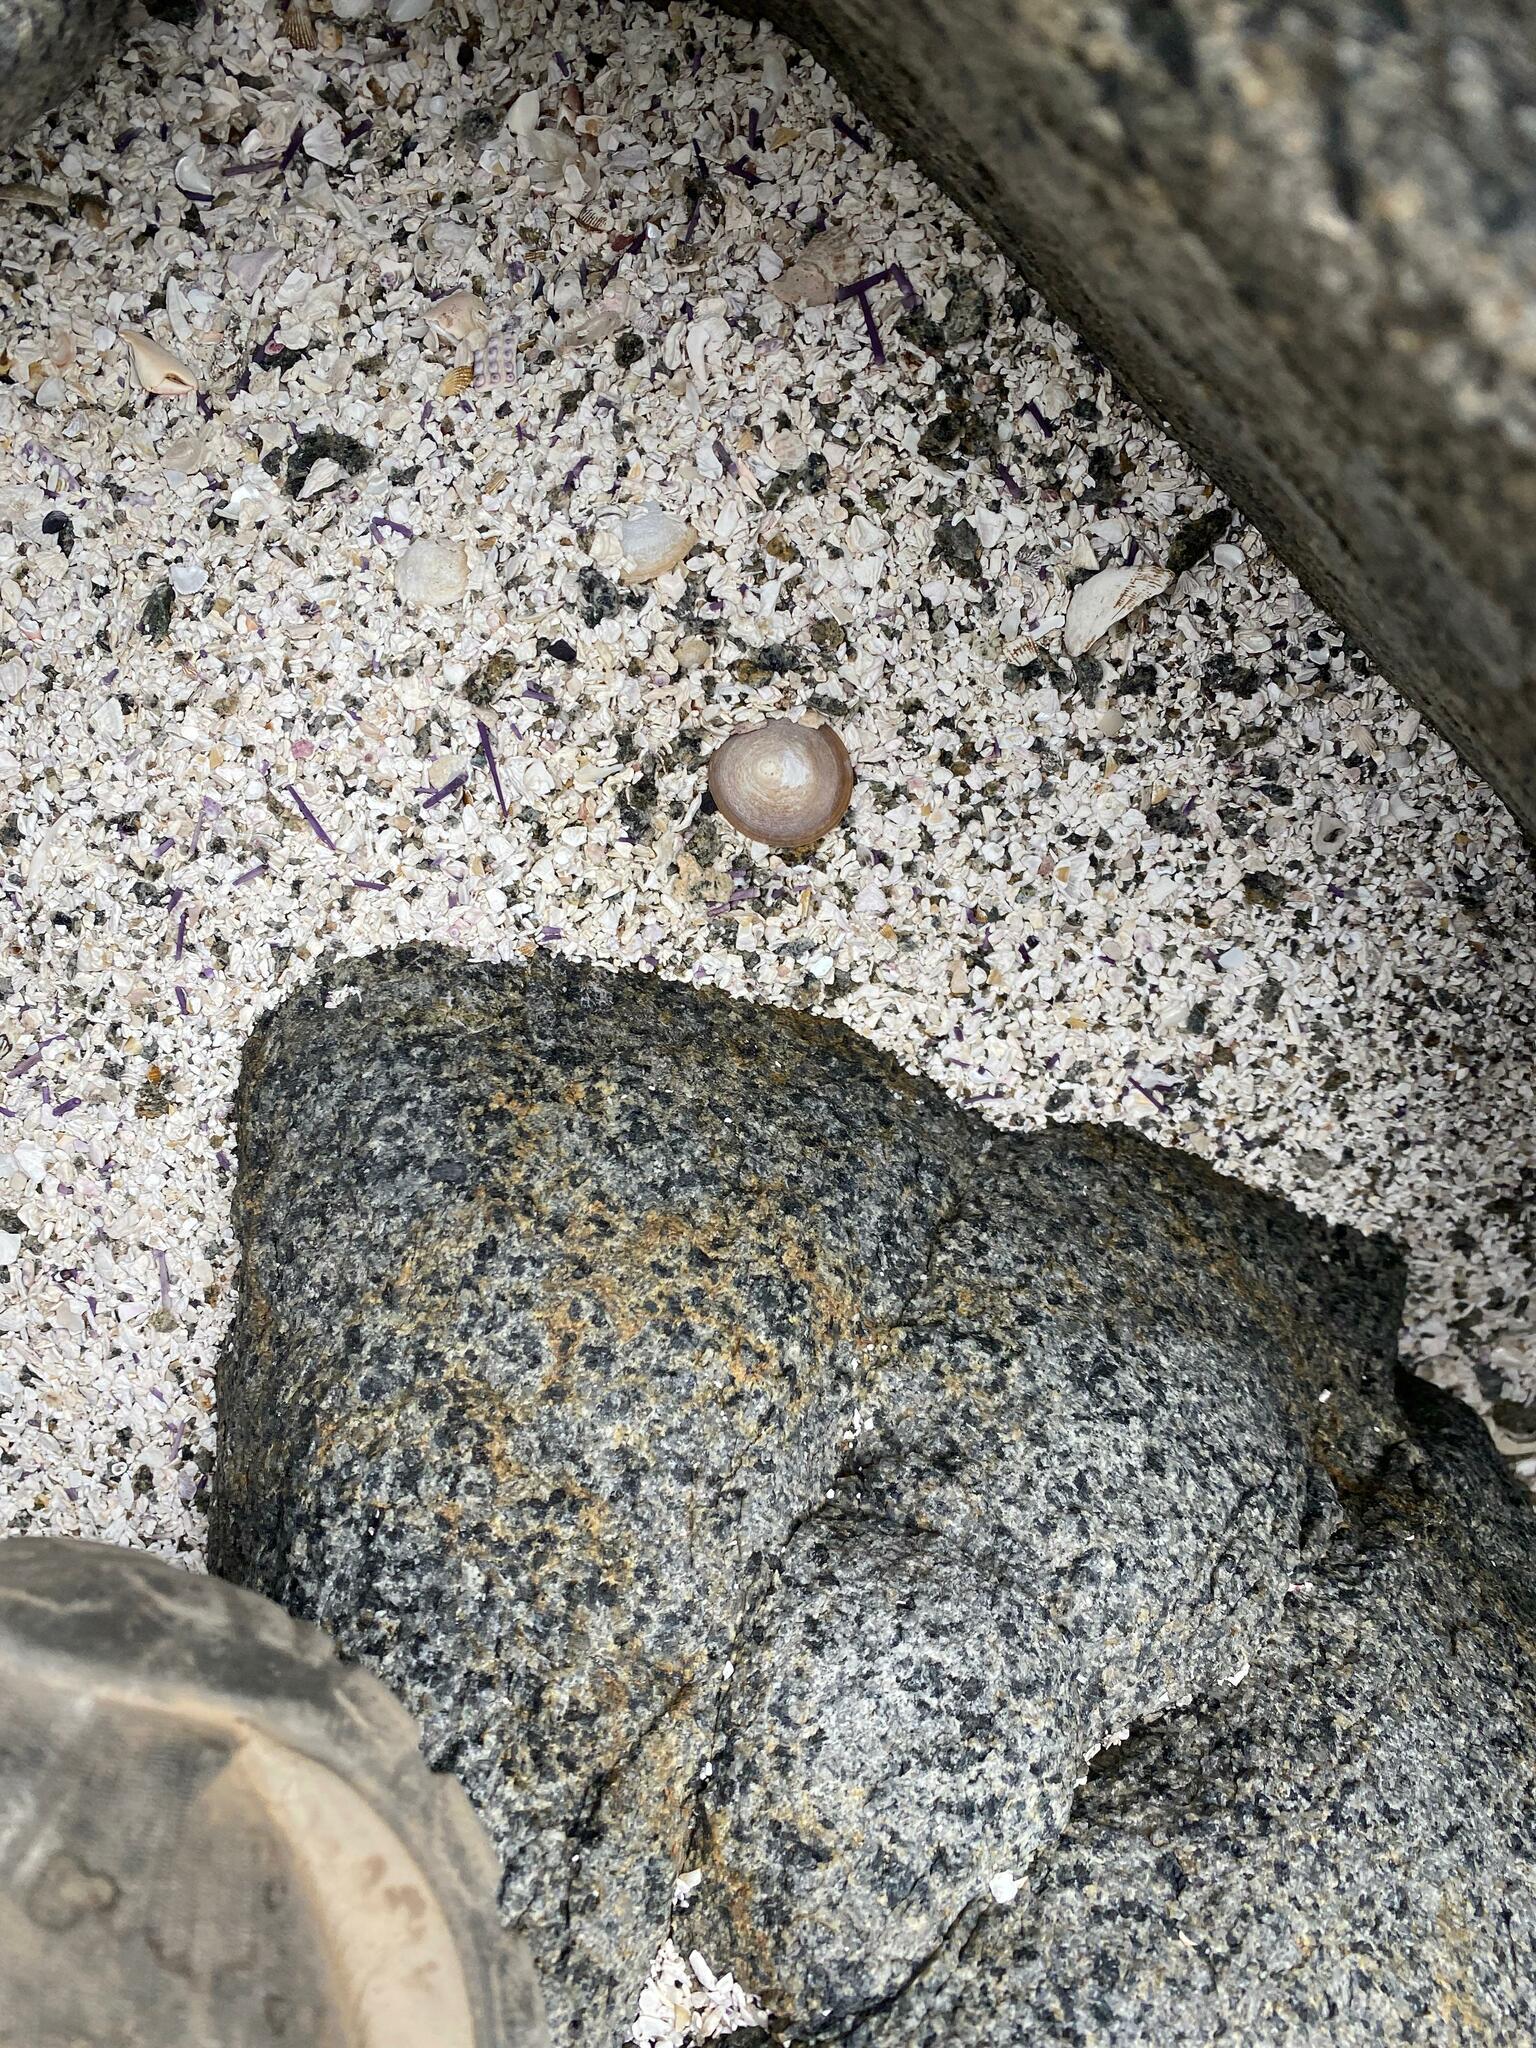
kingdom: Animalia
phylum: Mollusca
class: Gastropoda
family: Lottiidae
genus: Scurria
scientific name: Scurria scurra
